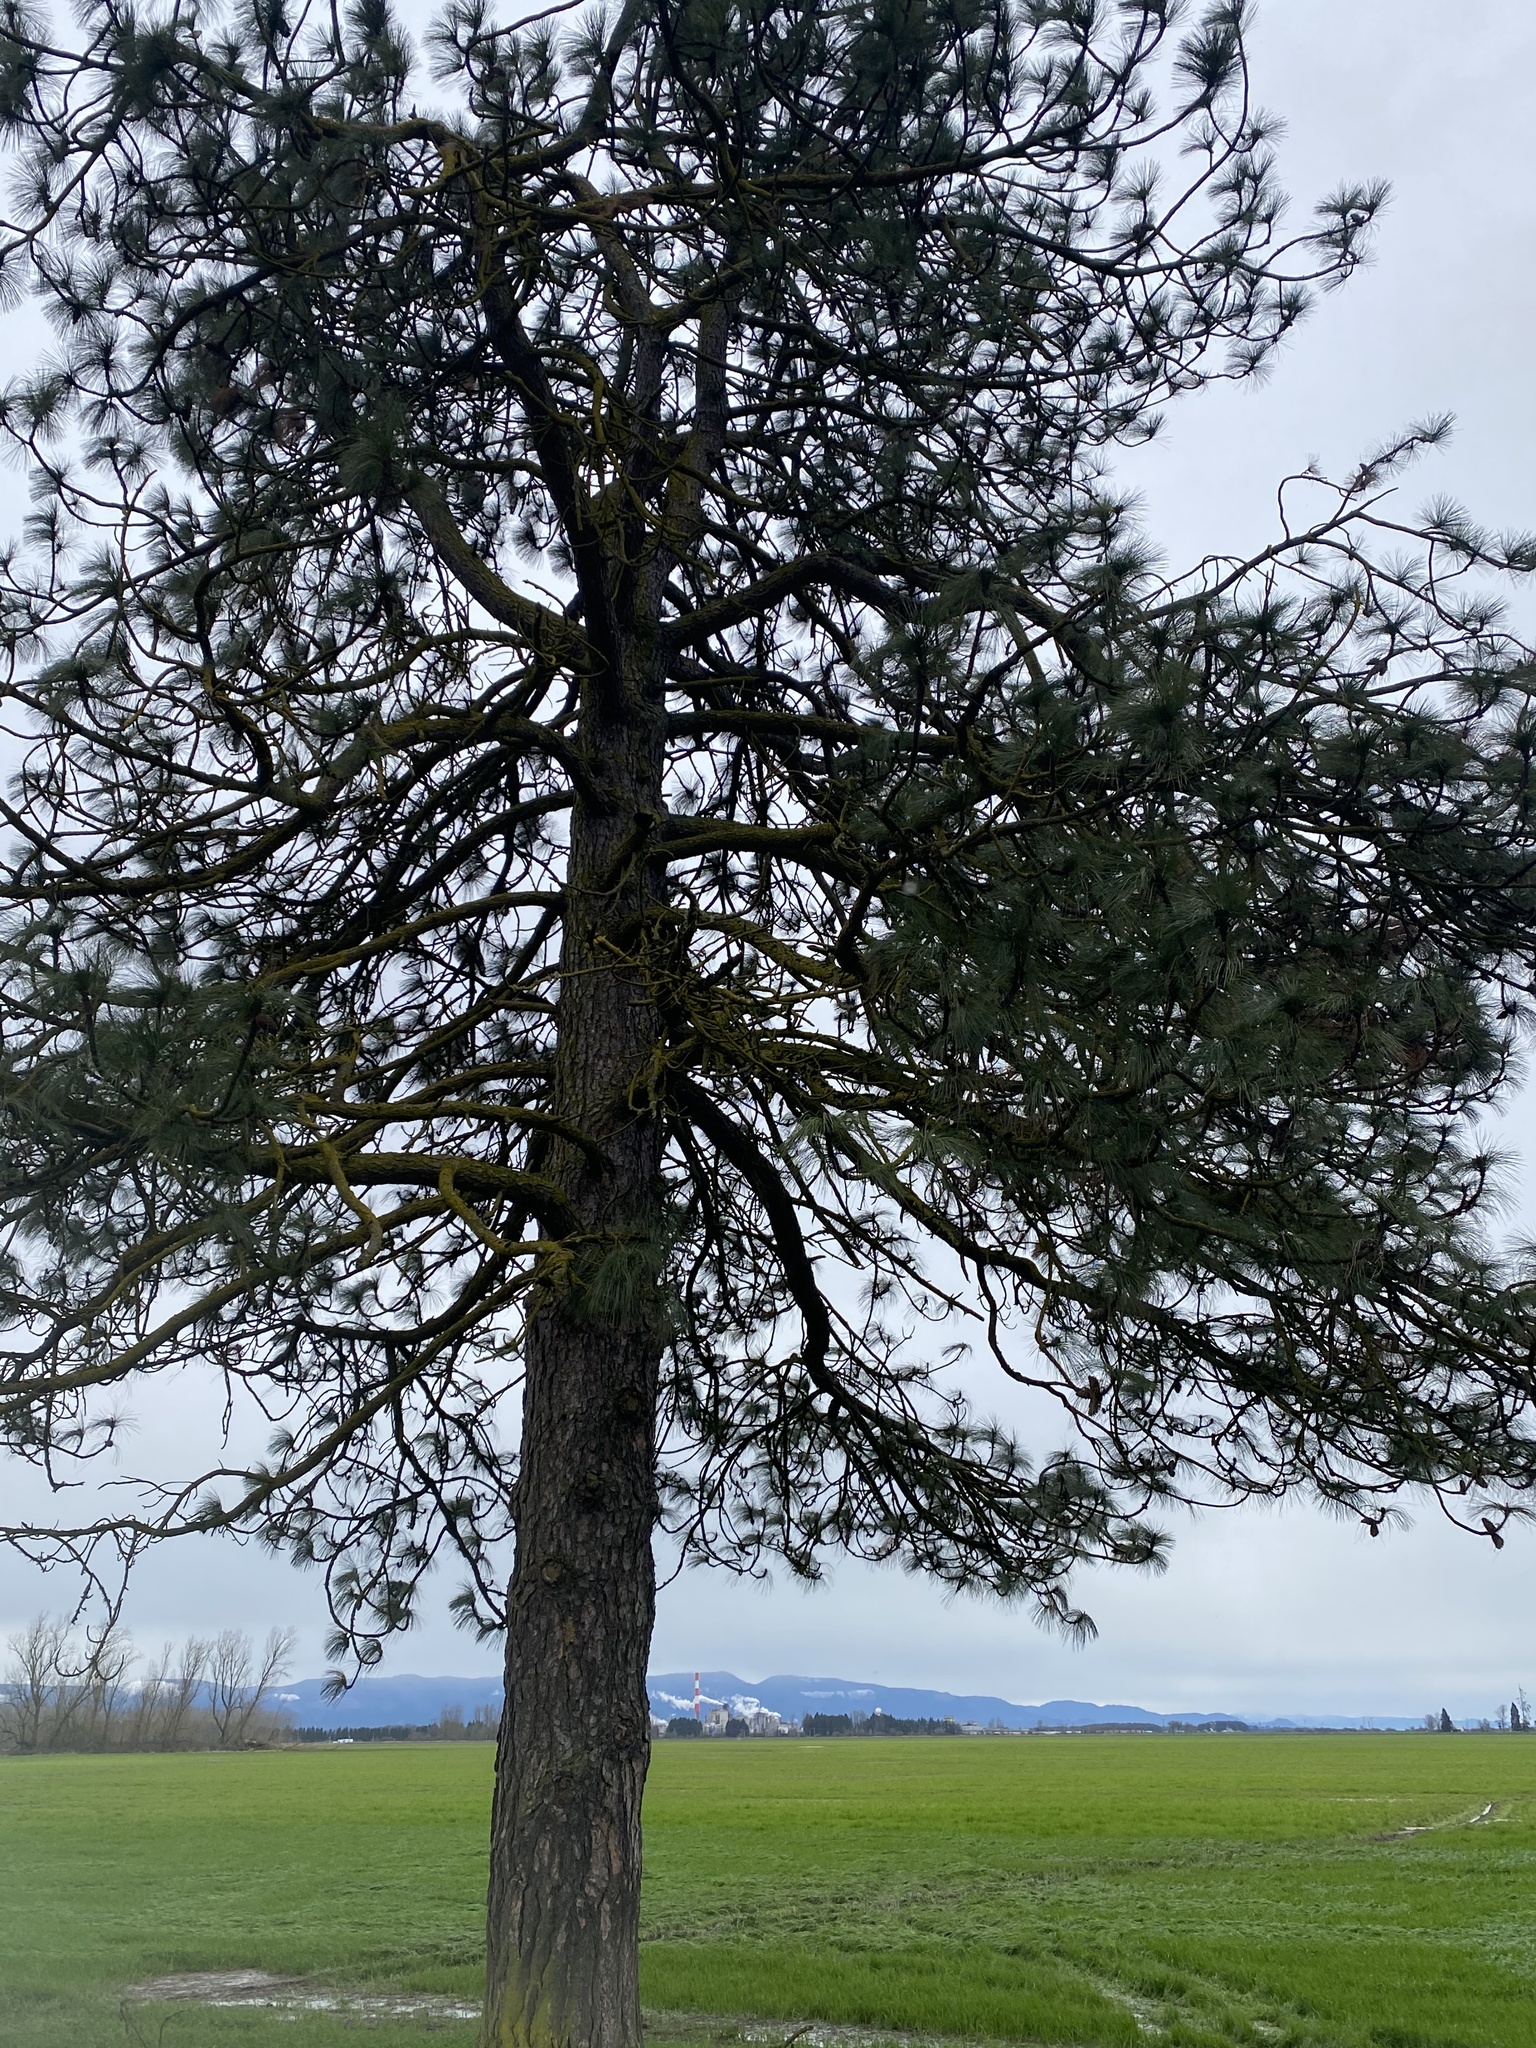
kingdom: Plantae
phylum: Tracheophyta
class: Pinopsida
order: Pinales
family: Pinaceae
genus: Pinus
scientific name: Pinus ponderosa
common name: Western yellow-pine
